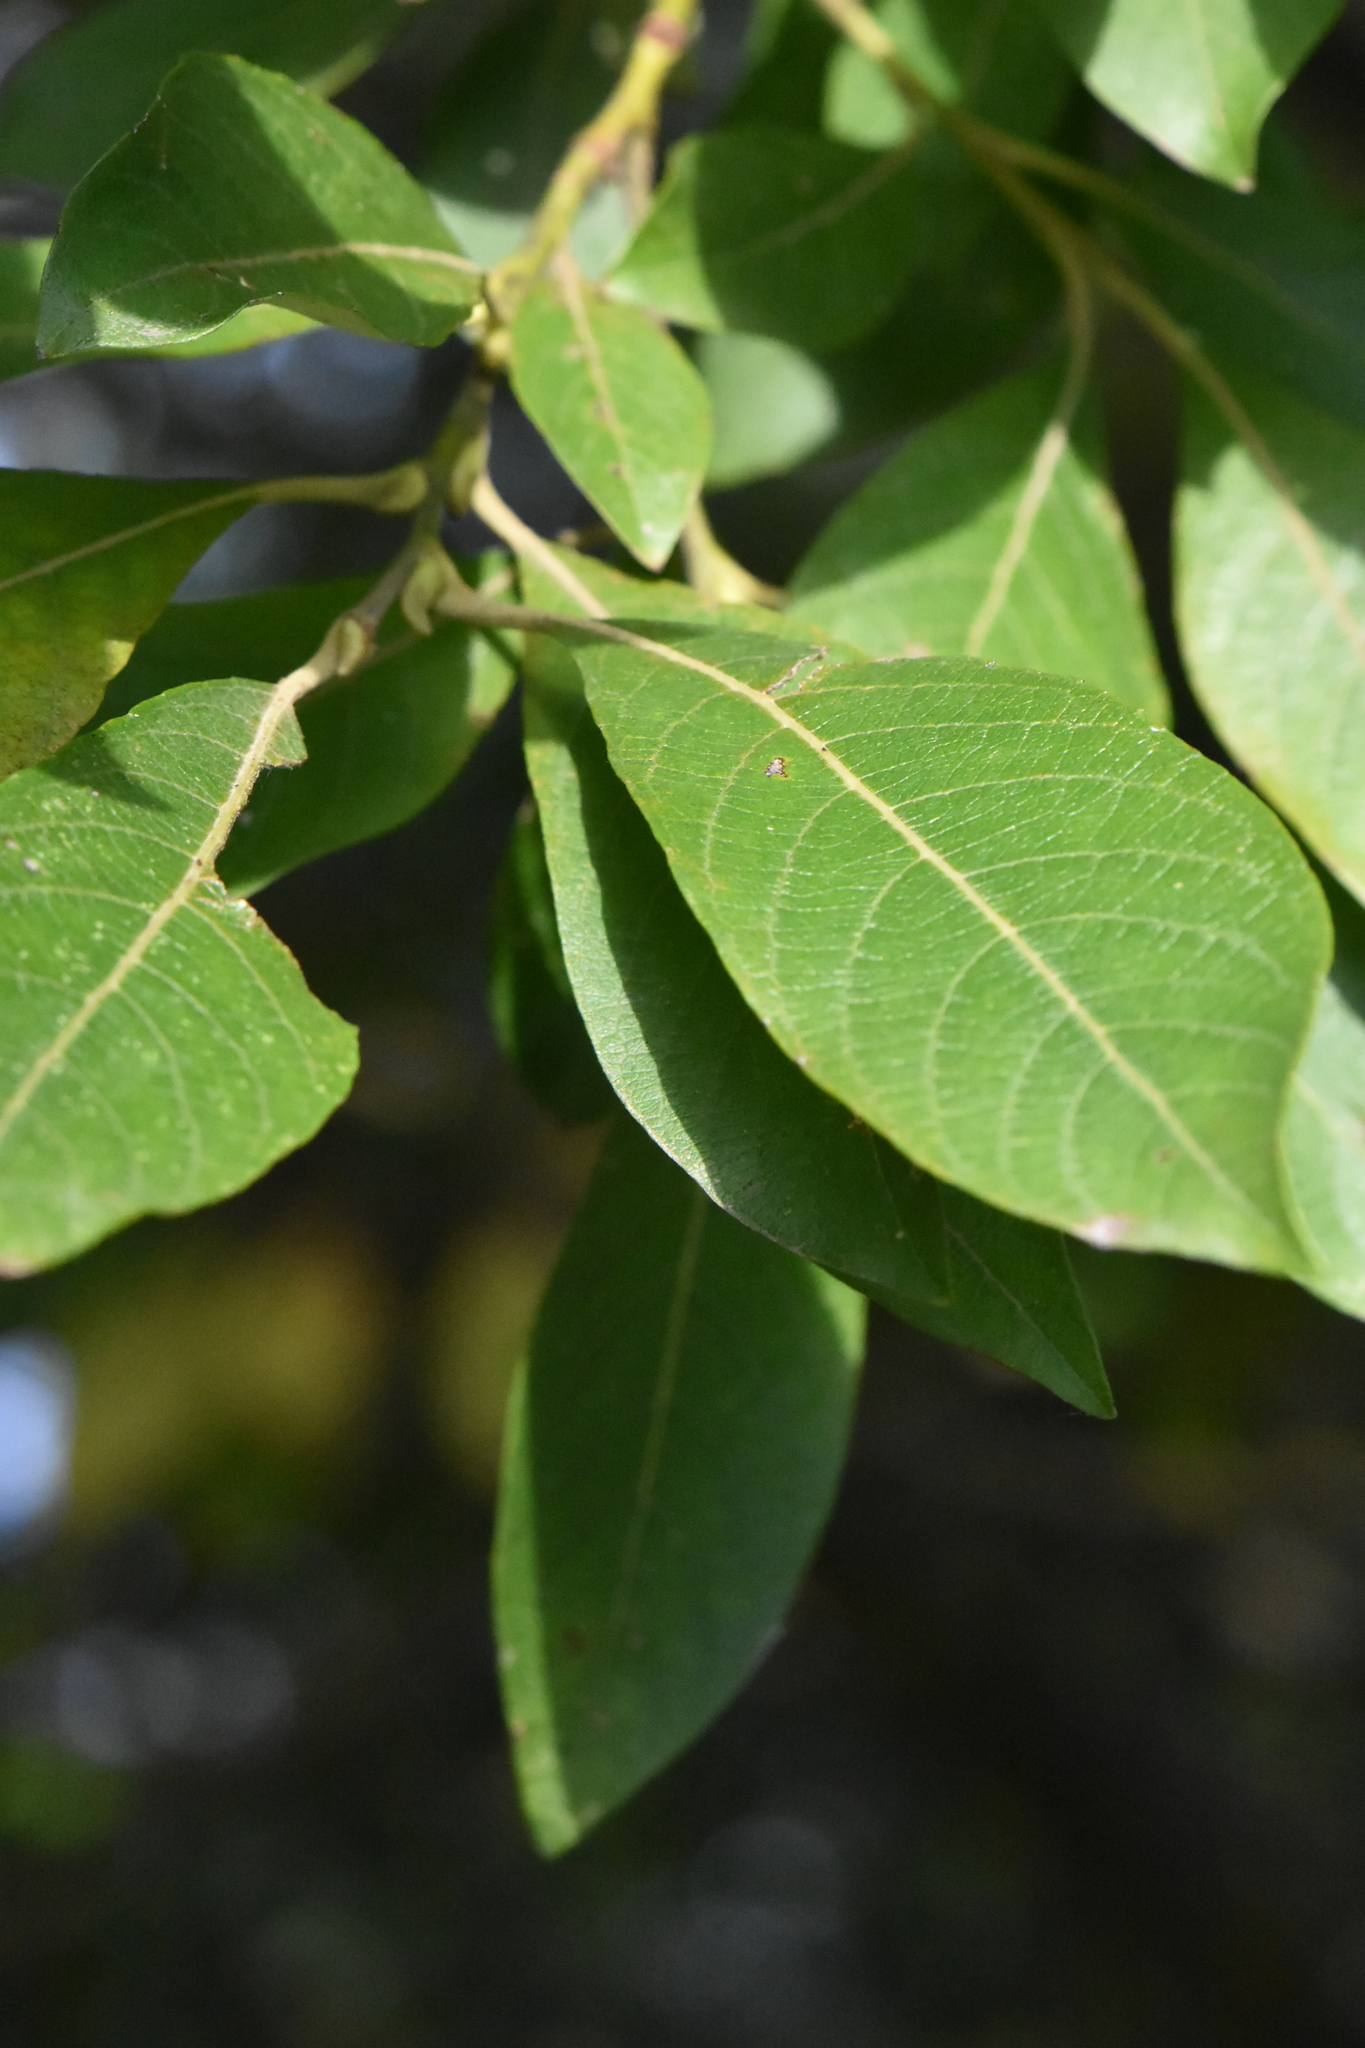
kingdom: Plantae
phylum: Tracheophyta
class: Magnoliopsida
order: Malpighiales
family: Salicaceae
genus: Salix
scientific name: Salix caprea
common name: Goat willow
